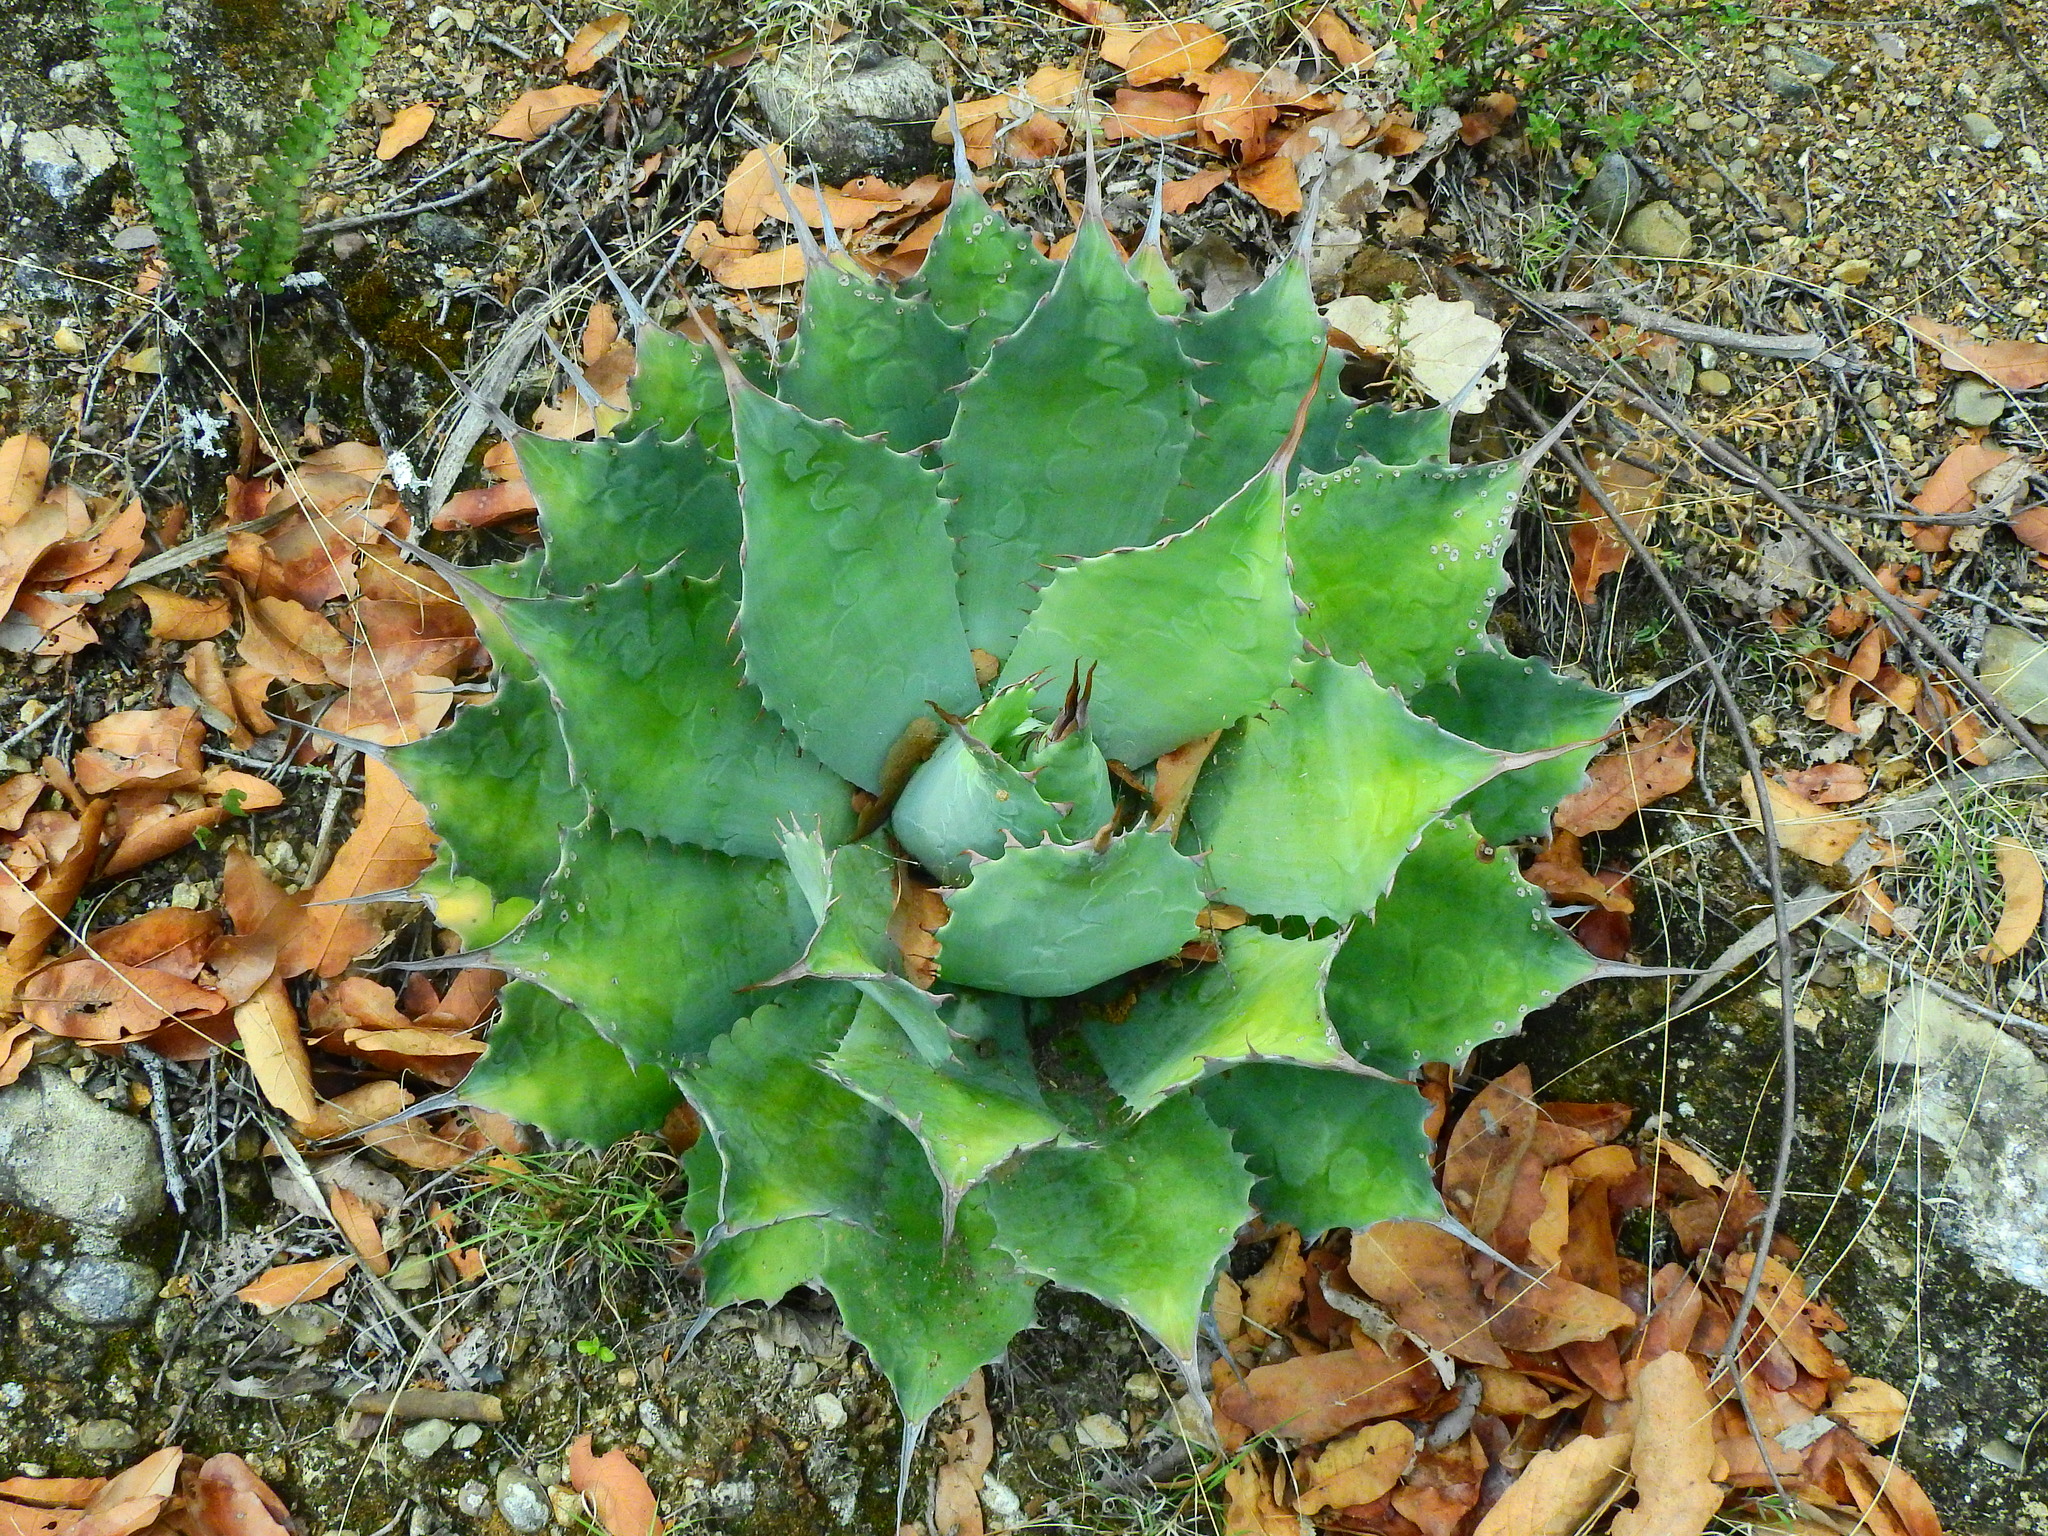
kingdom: Plantae
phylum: Tracheophyta
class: Liliopsida
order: Asparagales
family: Asparagaceae
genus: Agave
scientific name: Agave potatorum
